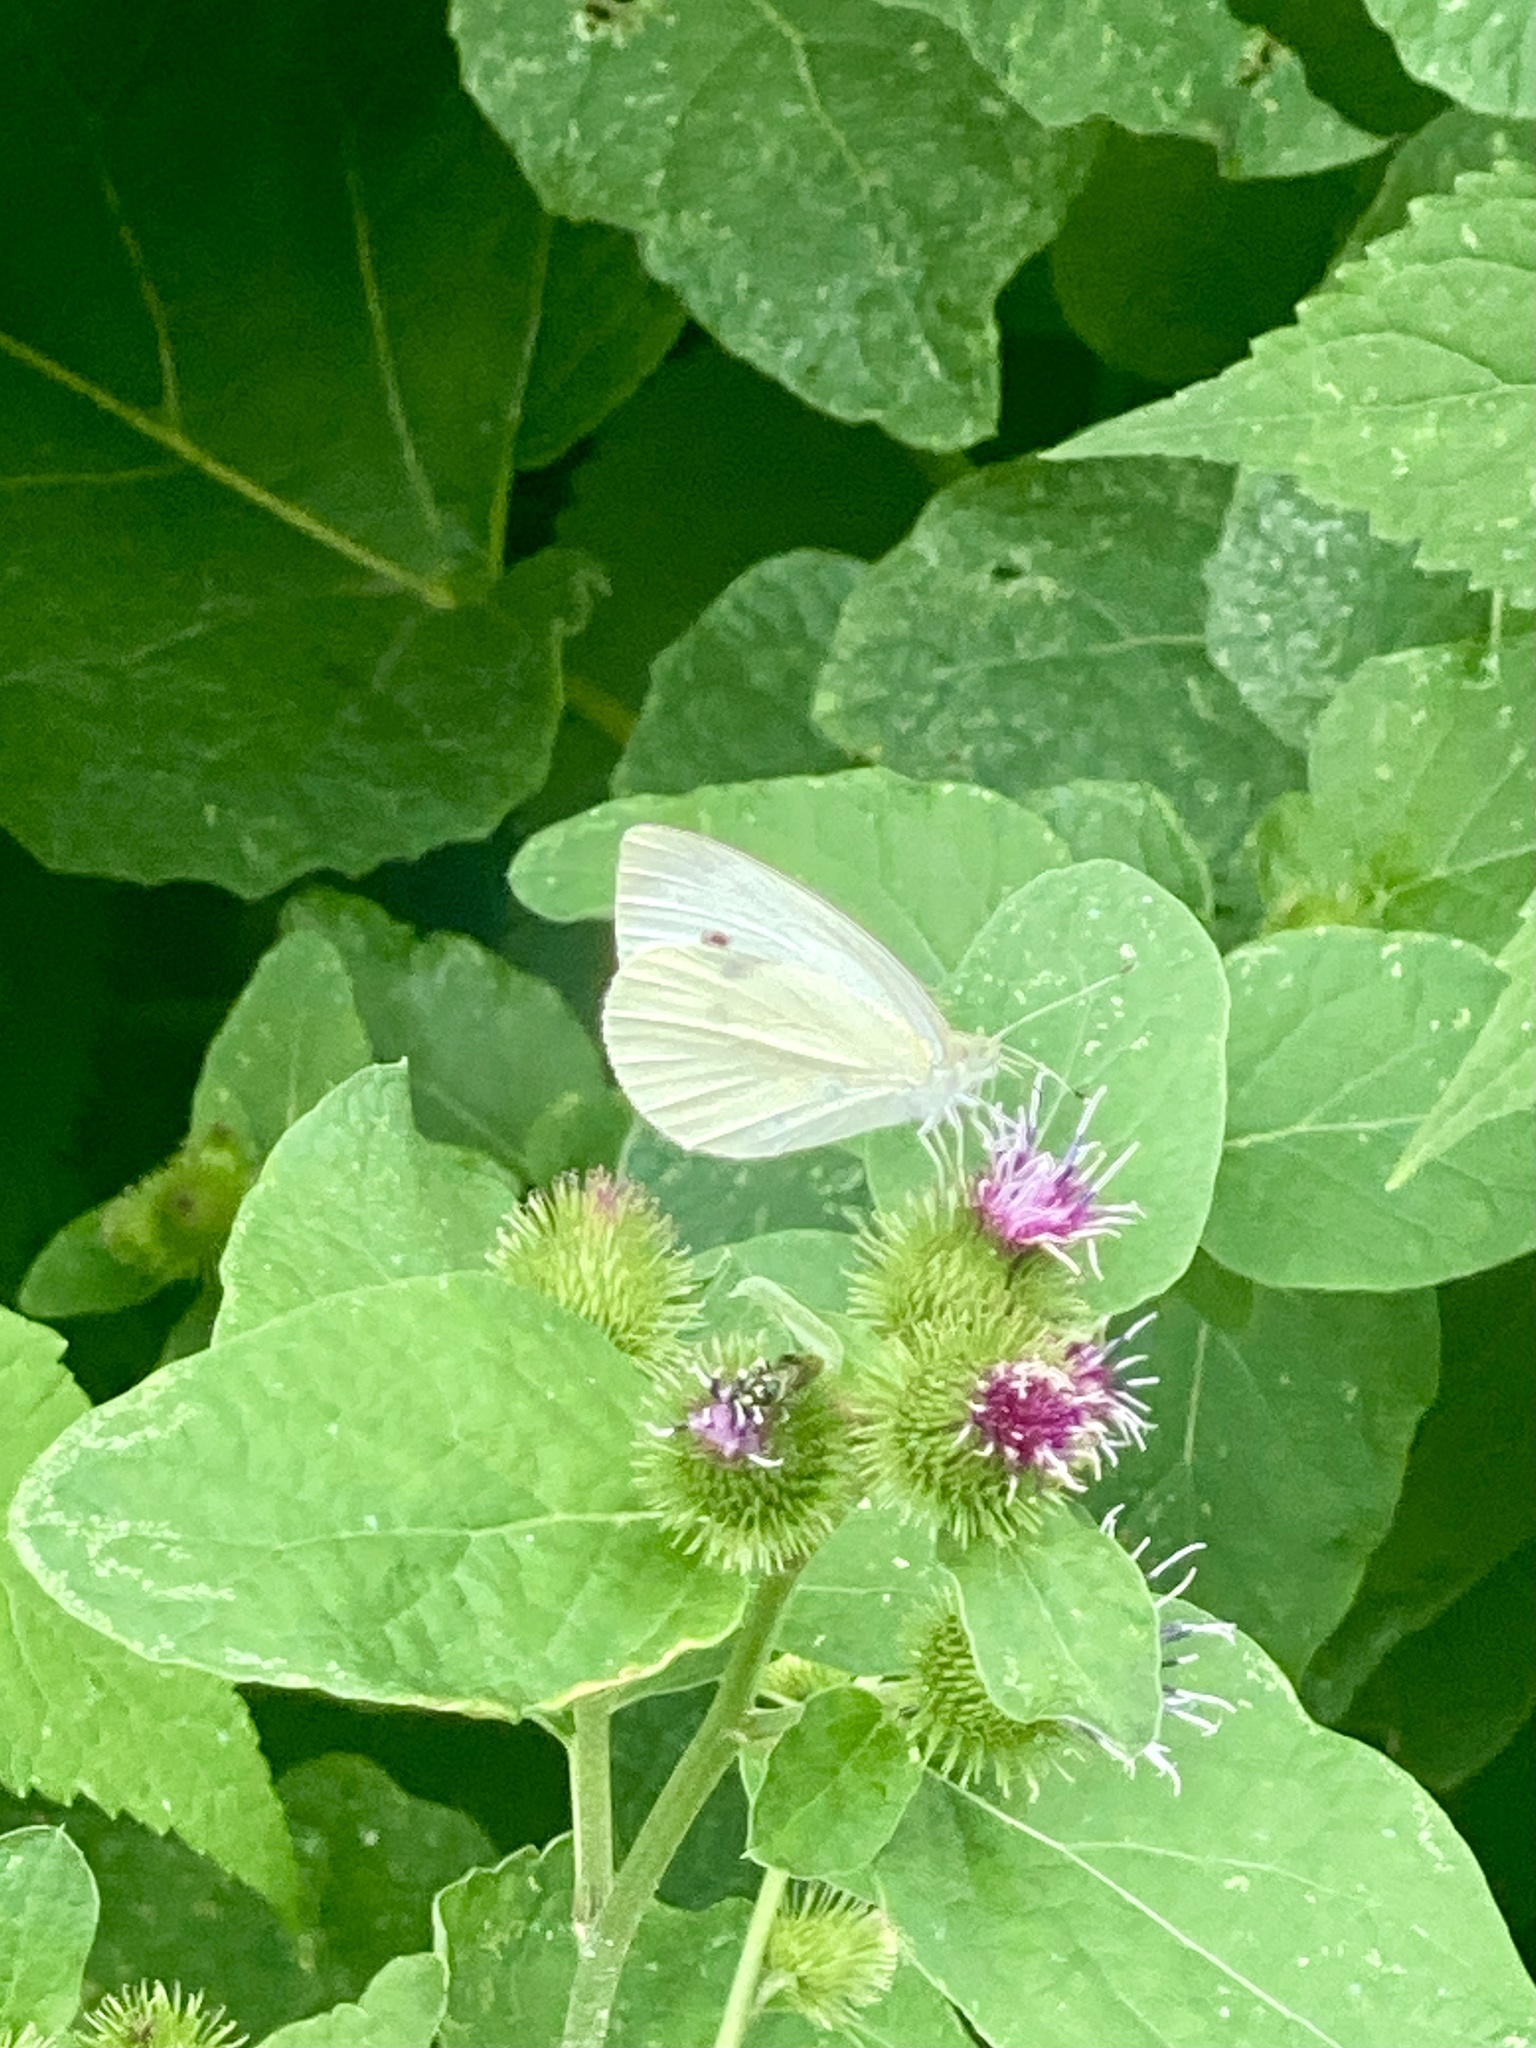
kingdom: Animalia
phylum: Arthropoda
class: Insecta
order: Lepidoptera
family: Pieridae
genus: Pieris
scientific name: Pieris rapae
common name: Small white
